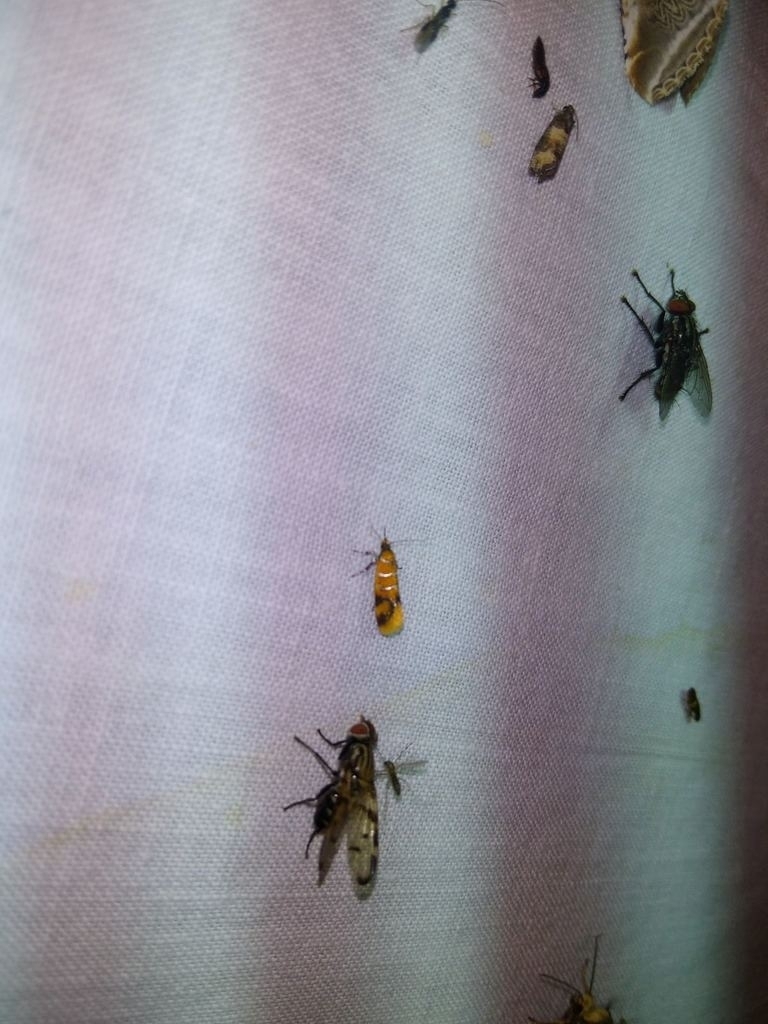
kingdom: Animalia
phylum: Arthropoda
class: Insecta
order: Diptera
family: Ulidiidae
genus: Otites
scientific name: Otites formosa
